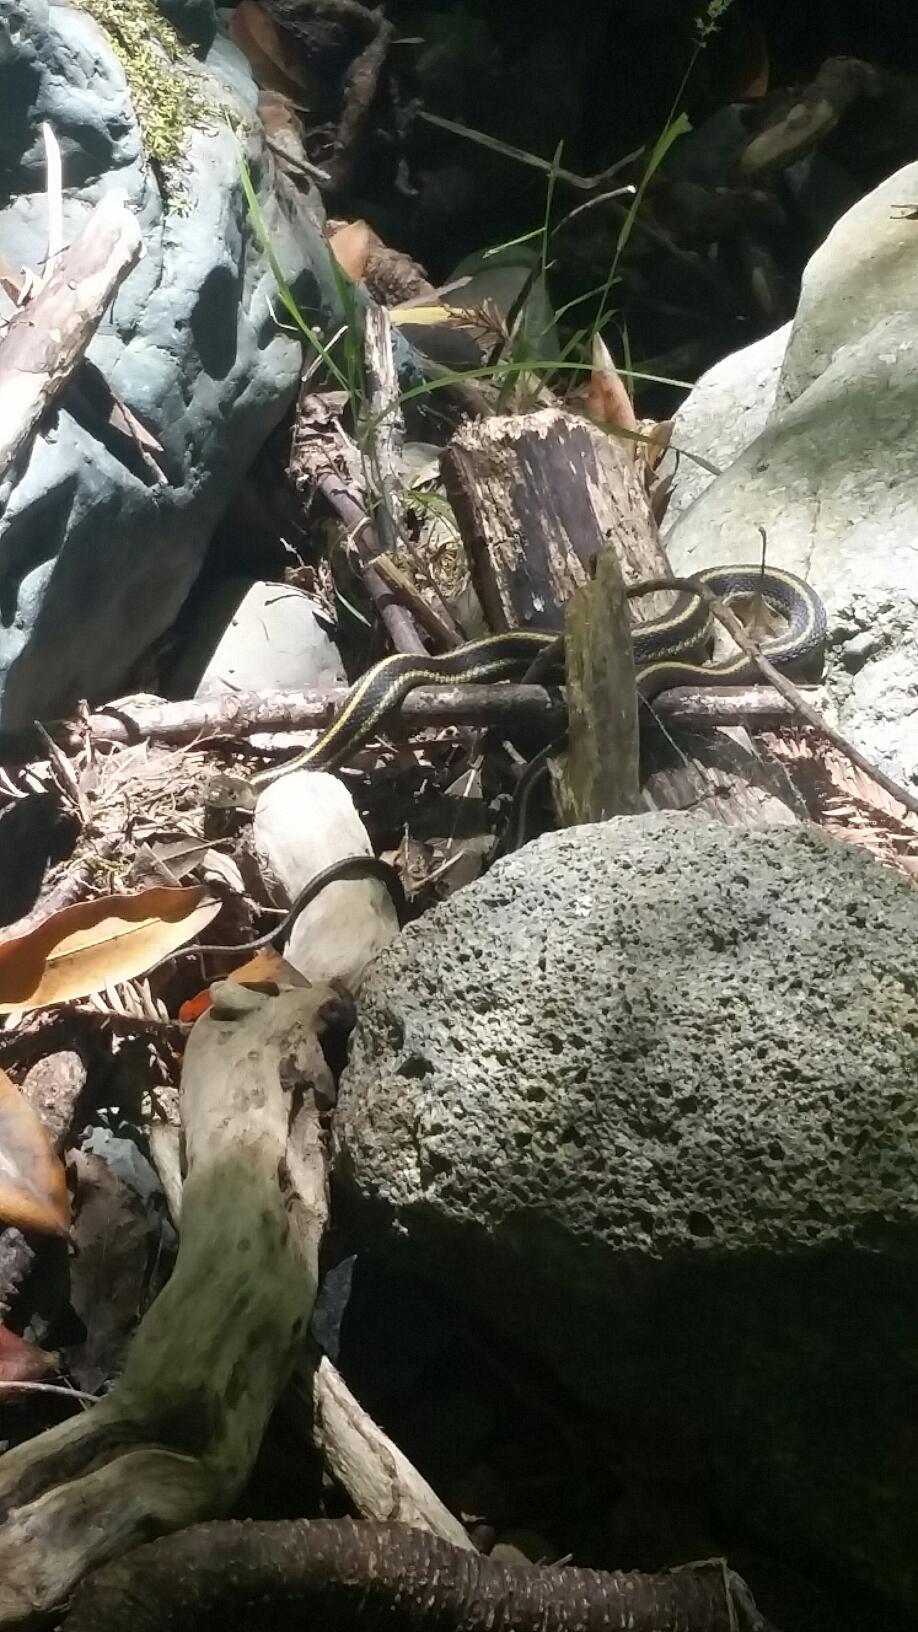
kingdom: Animalia
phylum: Chordata
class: Squamata
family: Colubridae
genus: Thamnophis
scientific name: Thamnophis atratus
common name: Pacific coast aquatic garter snake
